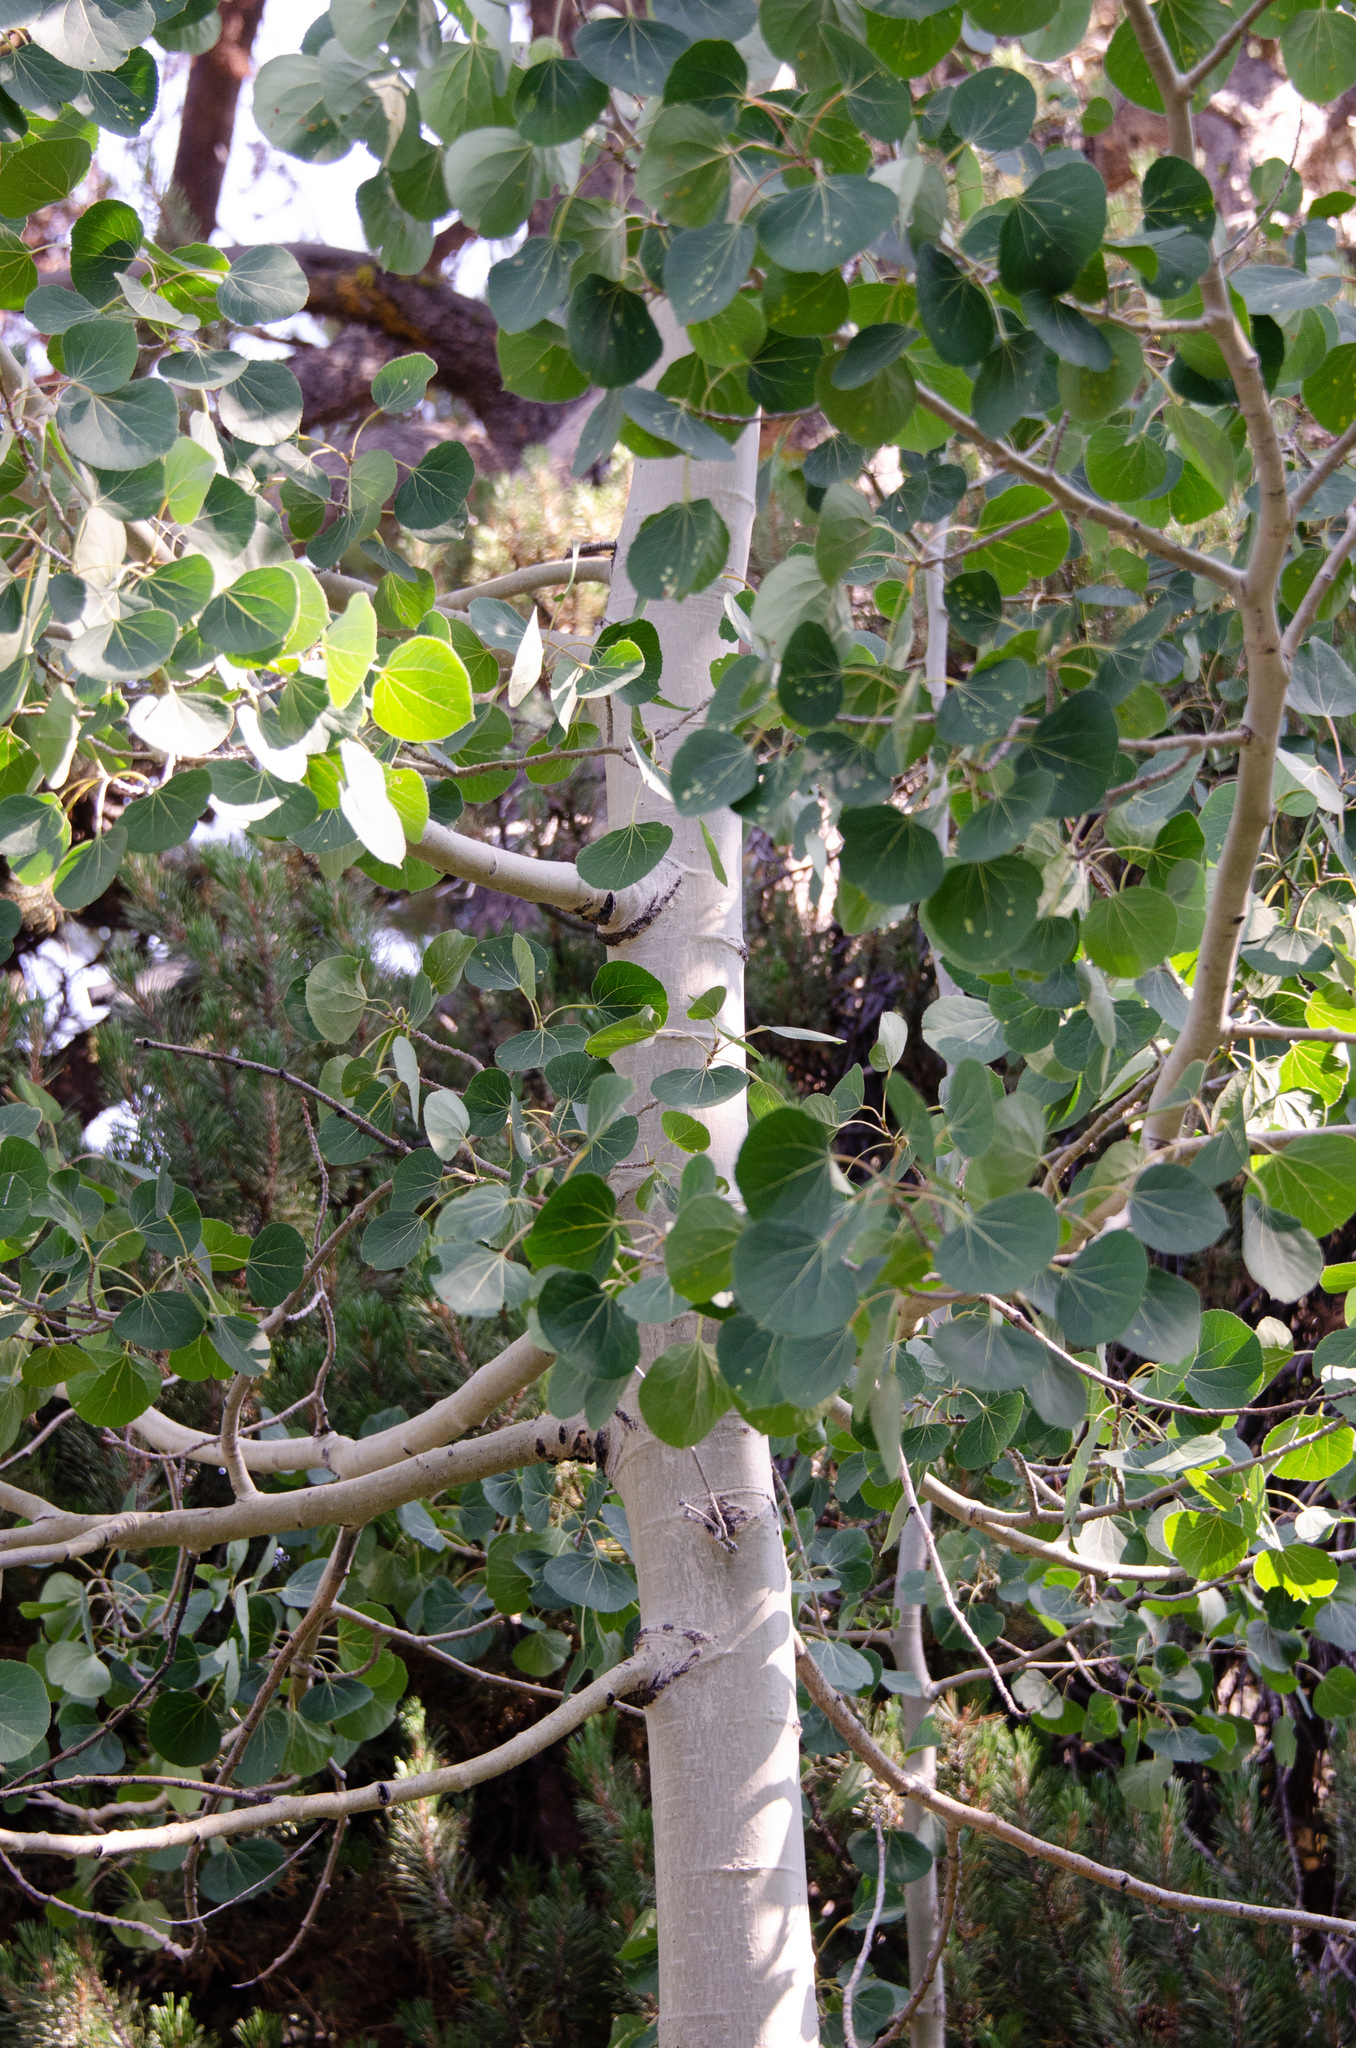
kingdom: Plantae
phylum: Tracheophyta
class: Magnoliopsida
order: Malpighiales
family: Salicaceae
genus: Populus
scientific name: Populus tremuloides
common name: Quaking aspen
